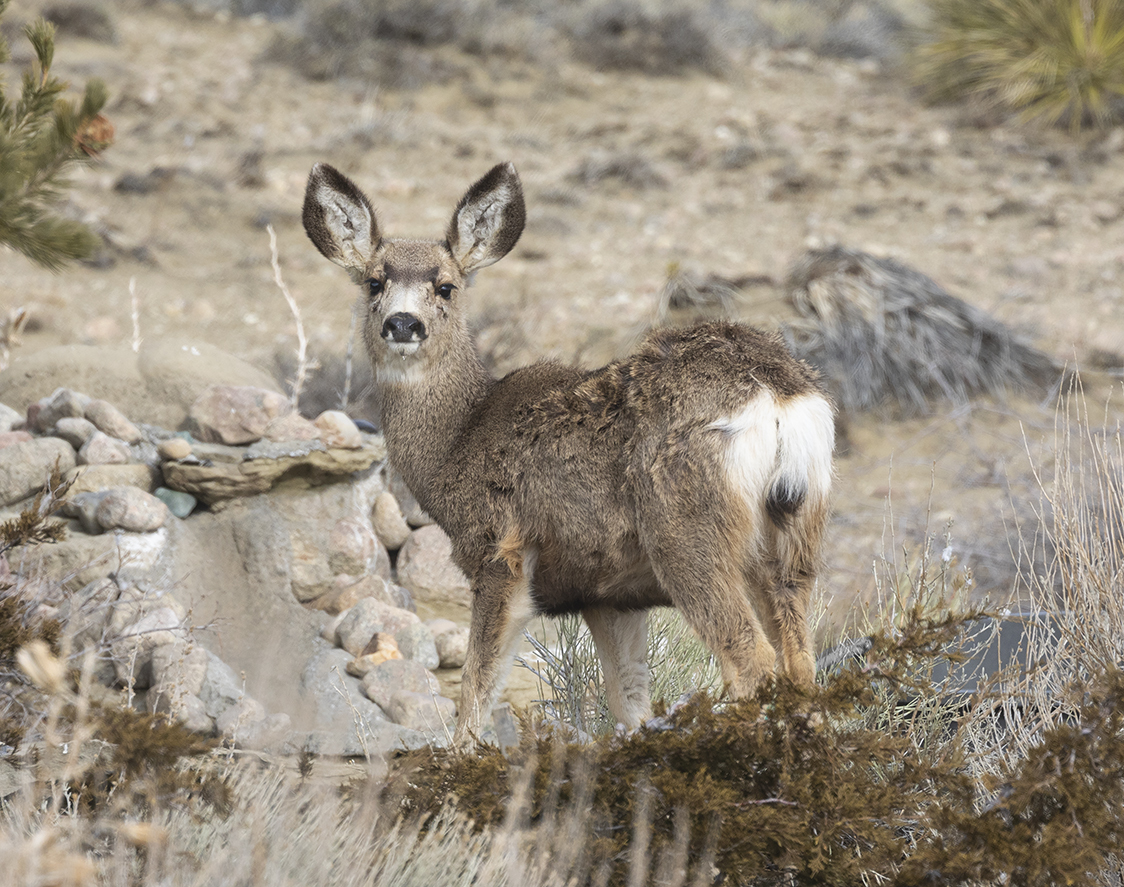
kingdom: Animalia
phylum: Chordata
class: Mammalia
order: Artiodactyla
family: Cervidae
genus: Odocoileus
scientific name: Odocoileus hemionus
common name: Mule deer
